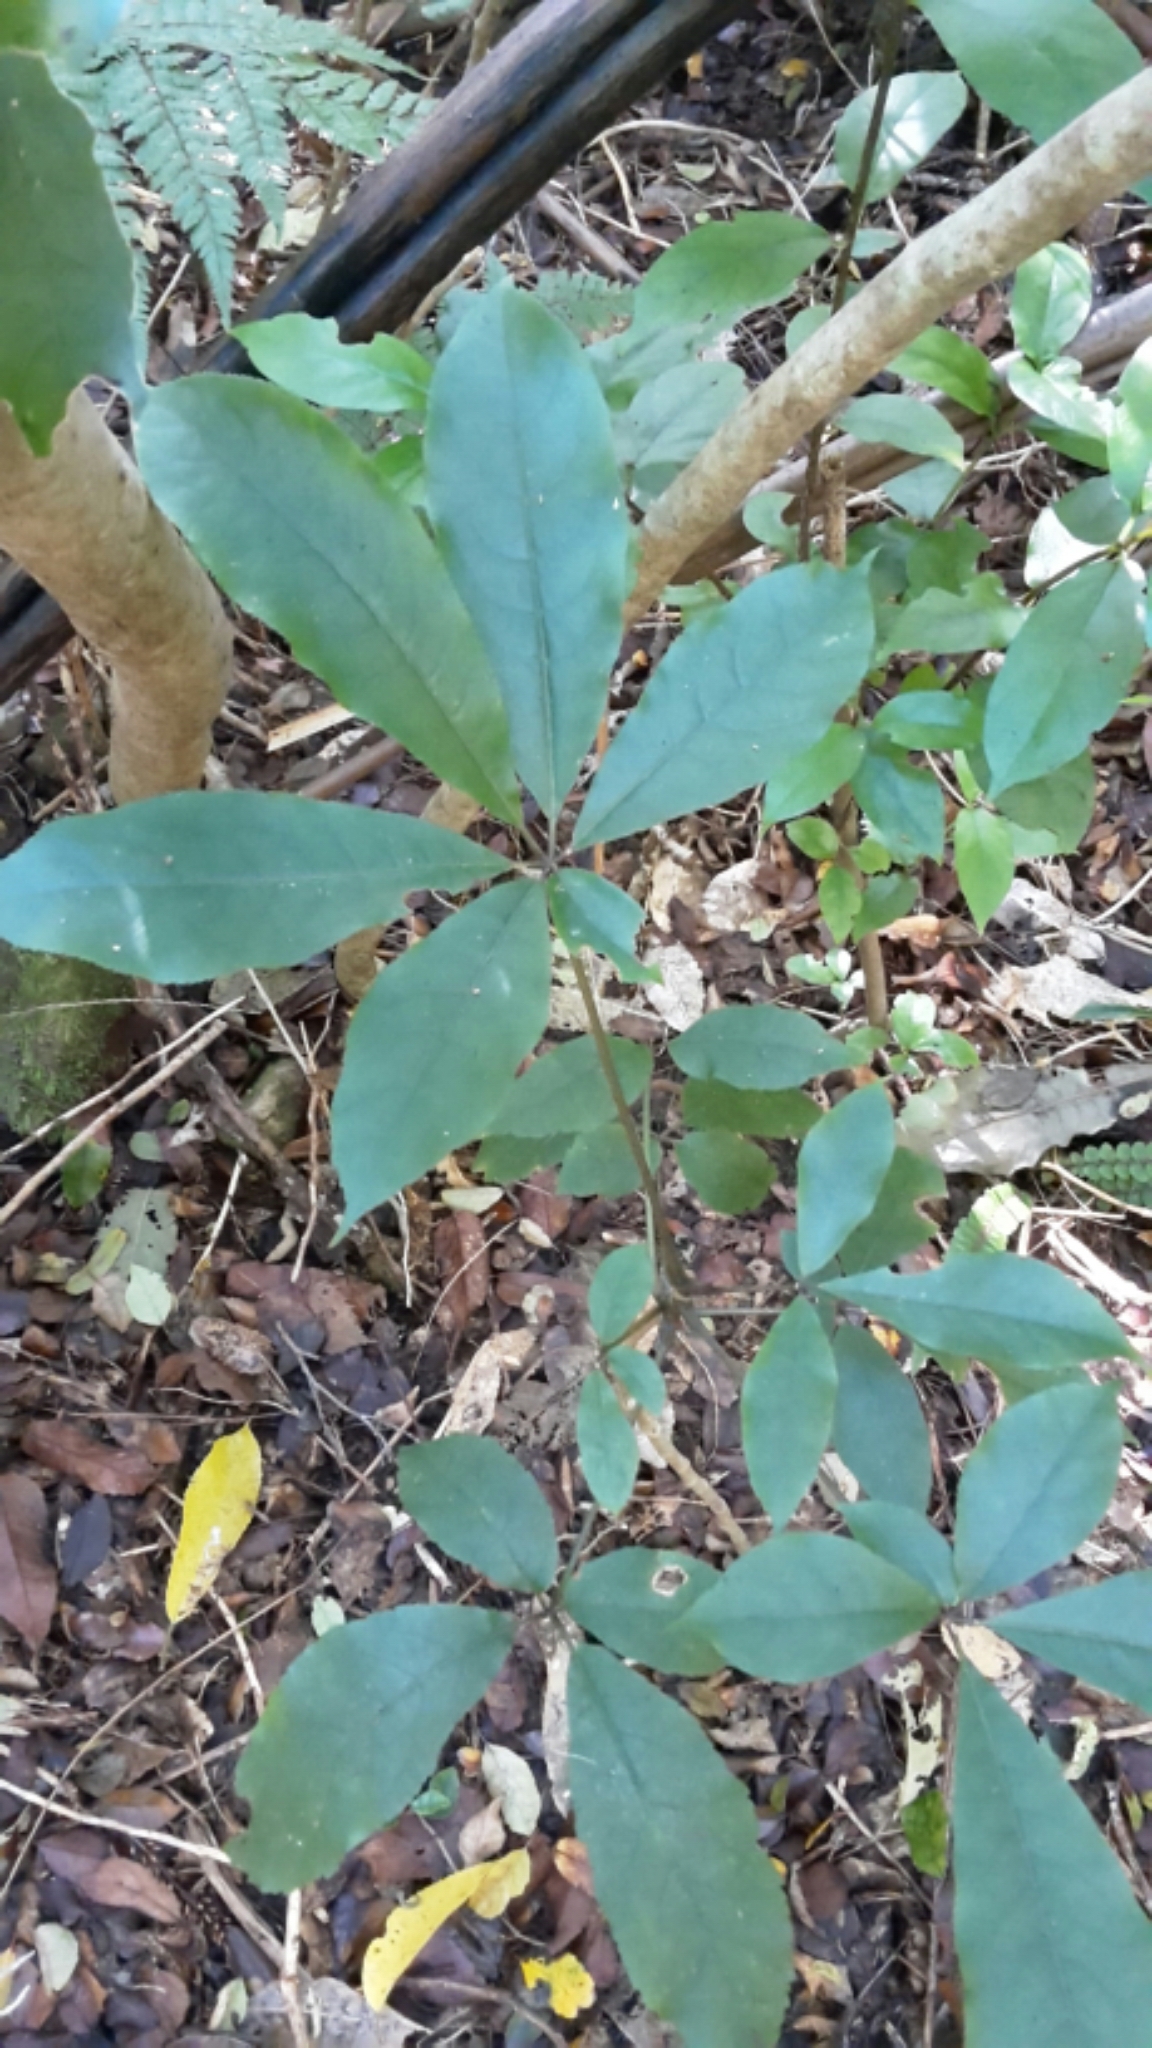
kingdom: Plantae
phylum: Tracheophyta
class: Magnoliopsida
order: Apiales
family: Araliaceae
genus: Schefflera
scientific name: Schefflera digitata
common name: Pate
